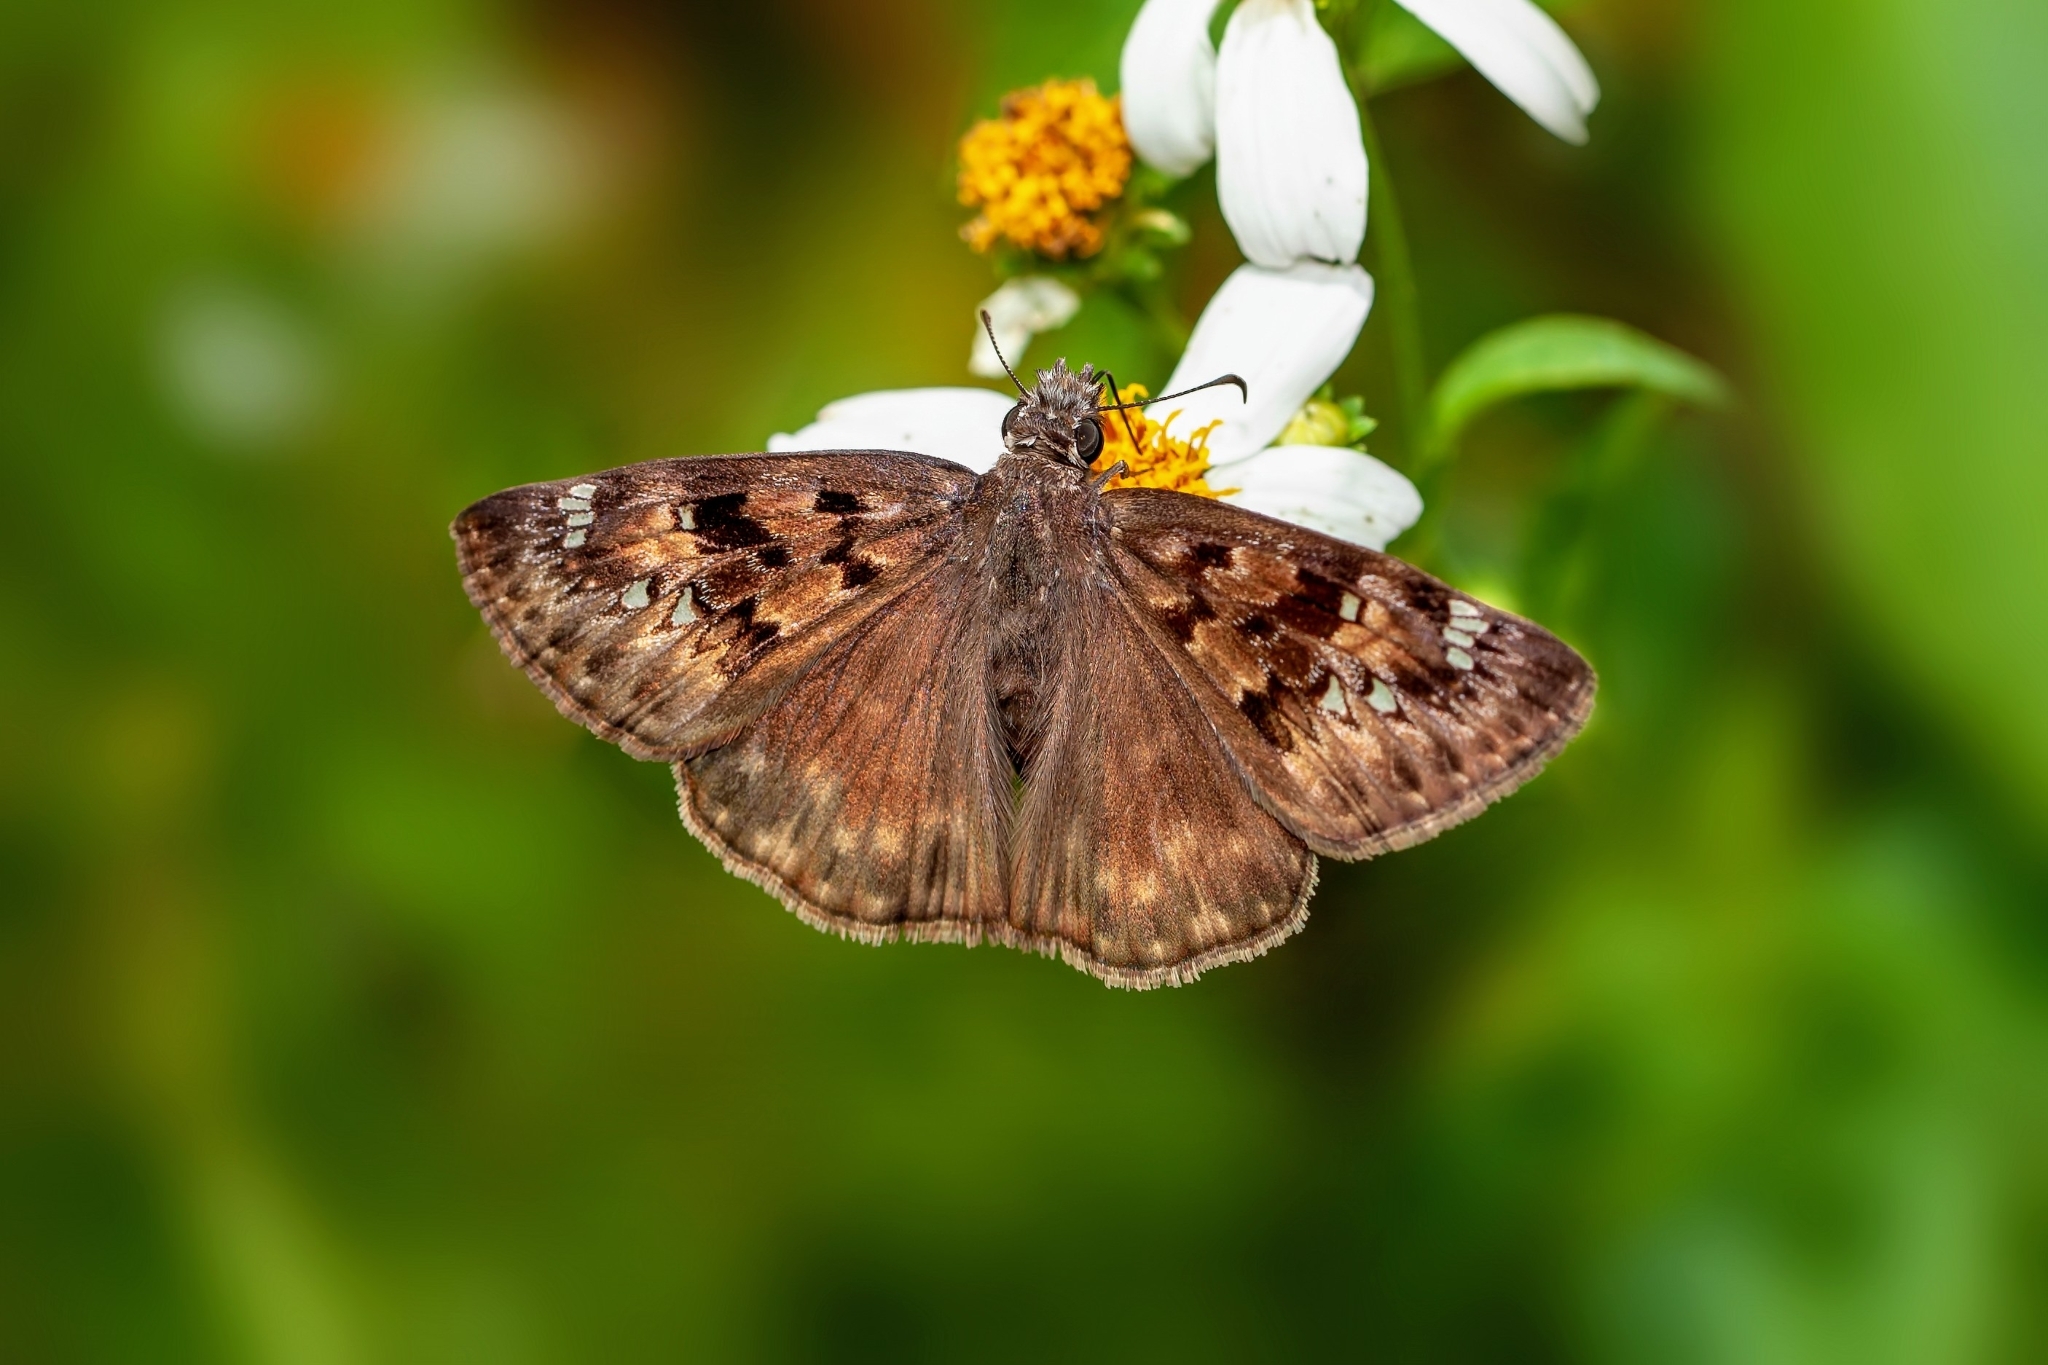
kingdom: Animalia
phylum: Arthropoda
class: Insecta
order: Lepidoptera
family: Hesperiidae
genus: Erynnis
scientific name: Erynnis horatius
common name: Horace's duskywing
